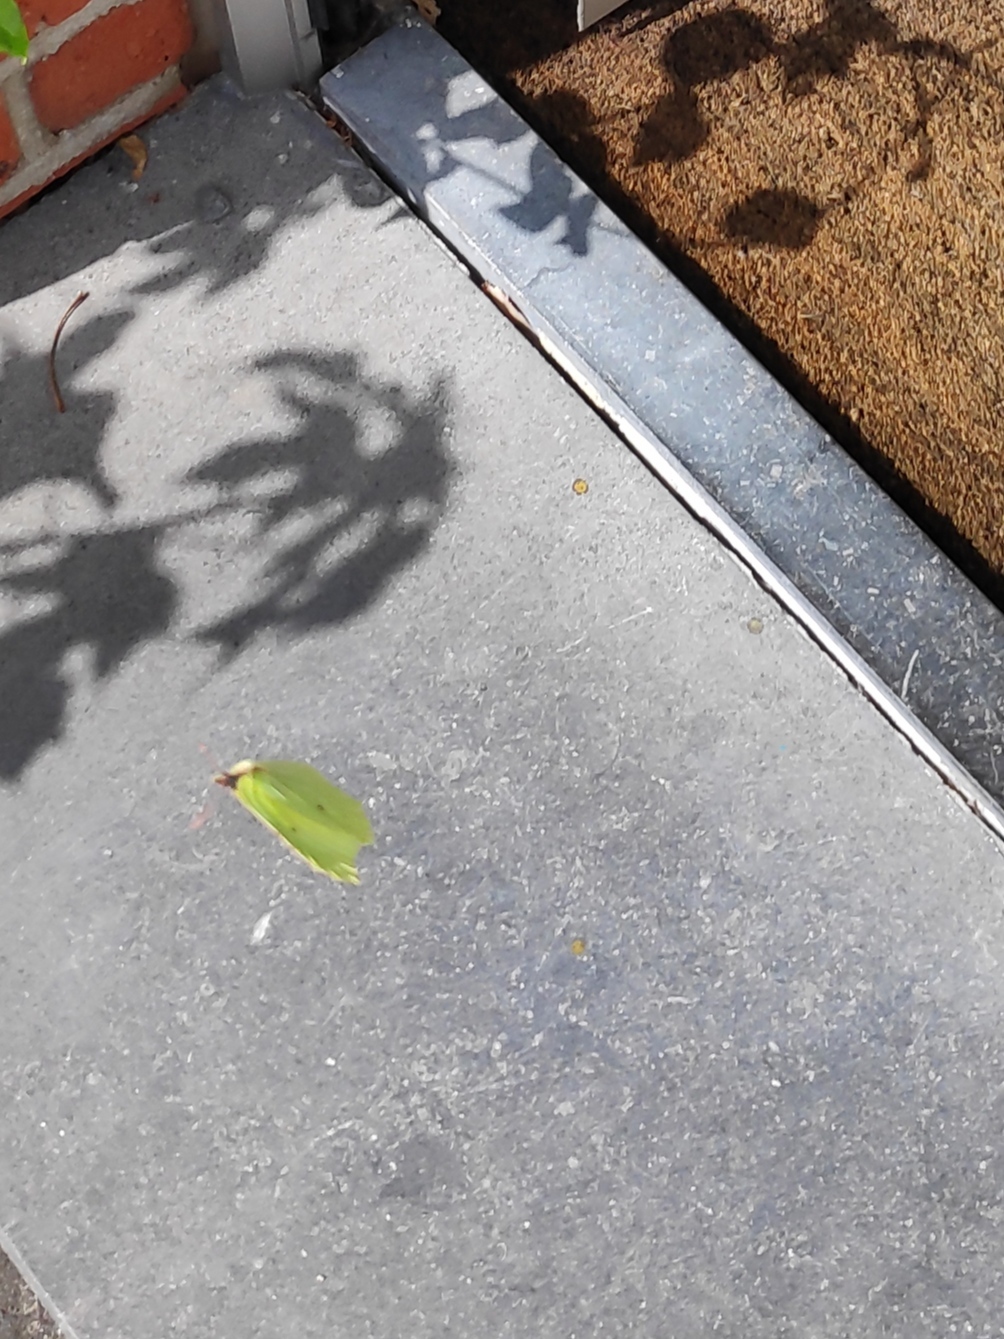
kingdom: Animalia
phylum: Arthropoda
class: Insecta
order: Lepidoptera
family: Pieridae
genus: Gonepteryx
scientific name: Gonepteryx rhamni
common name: Brimstone
